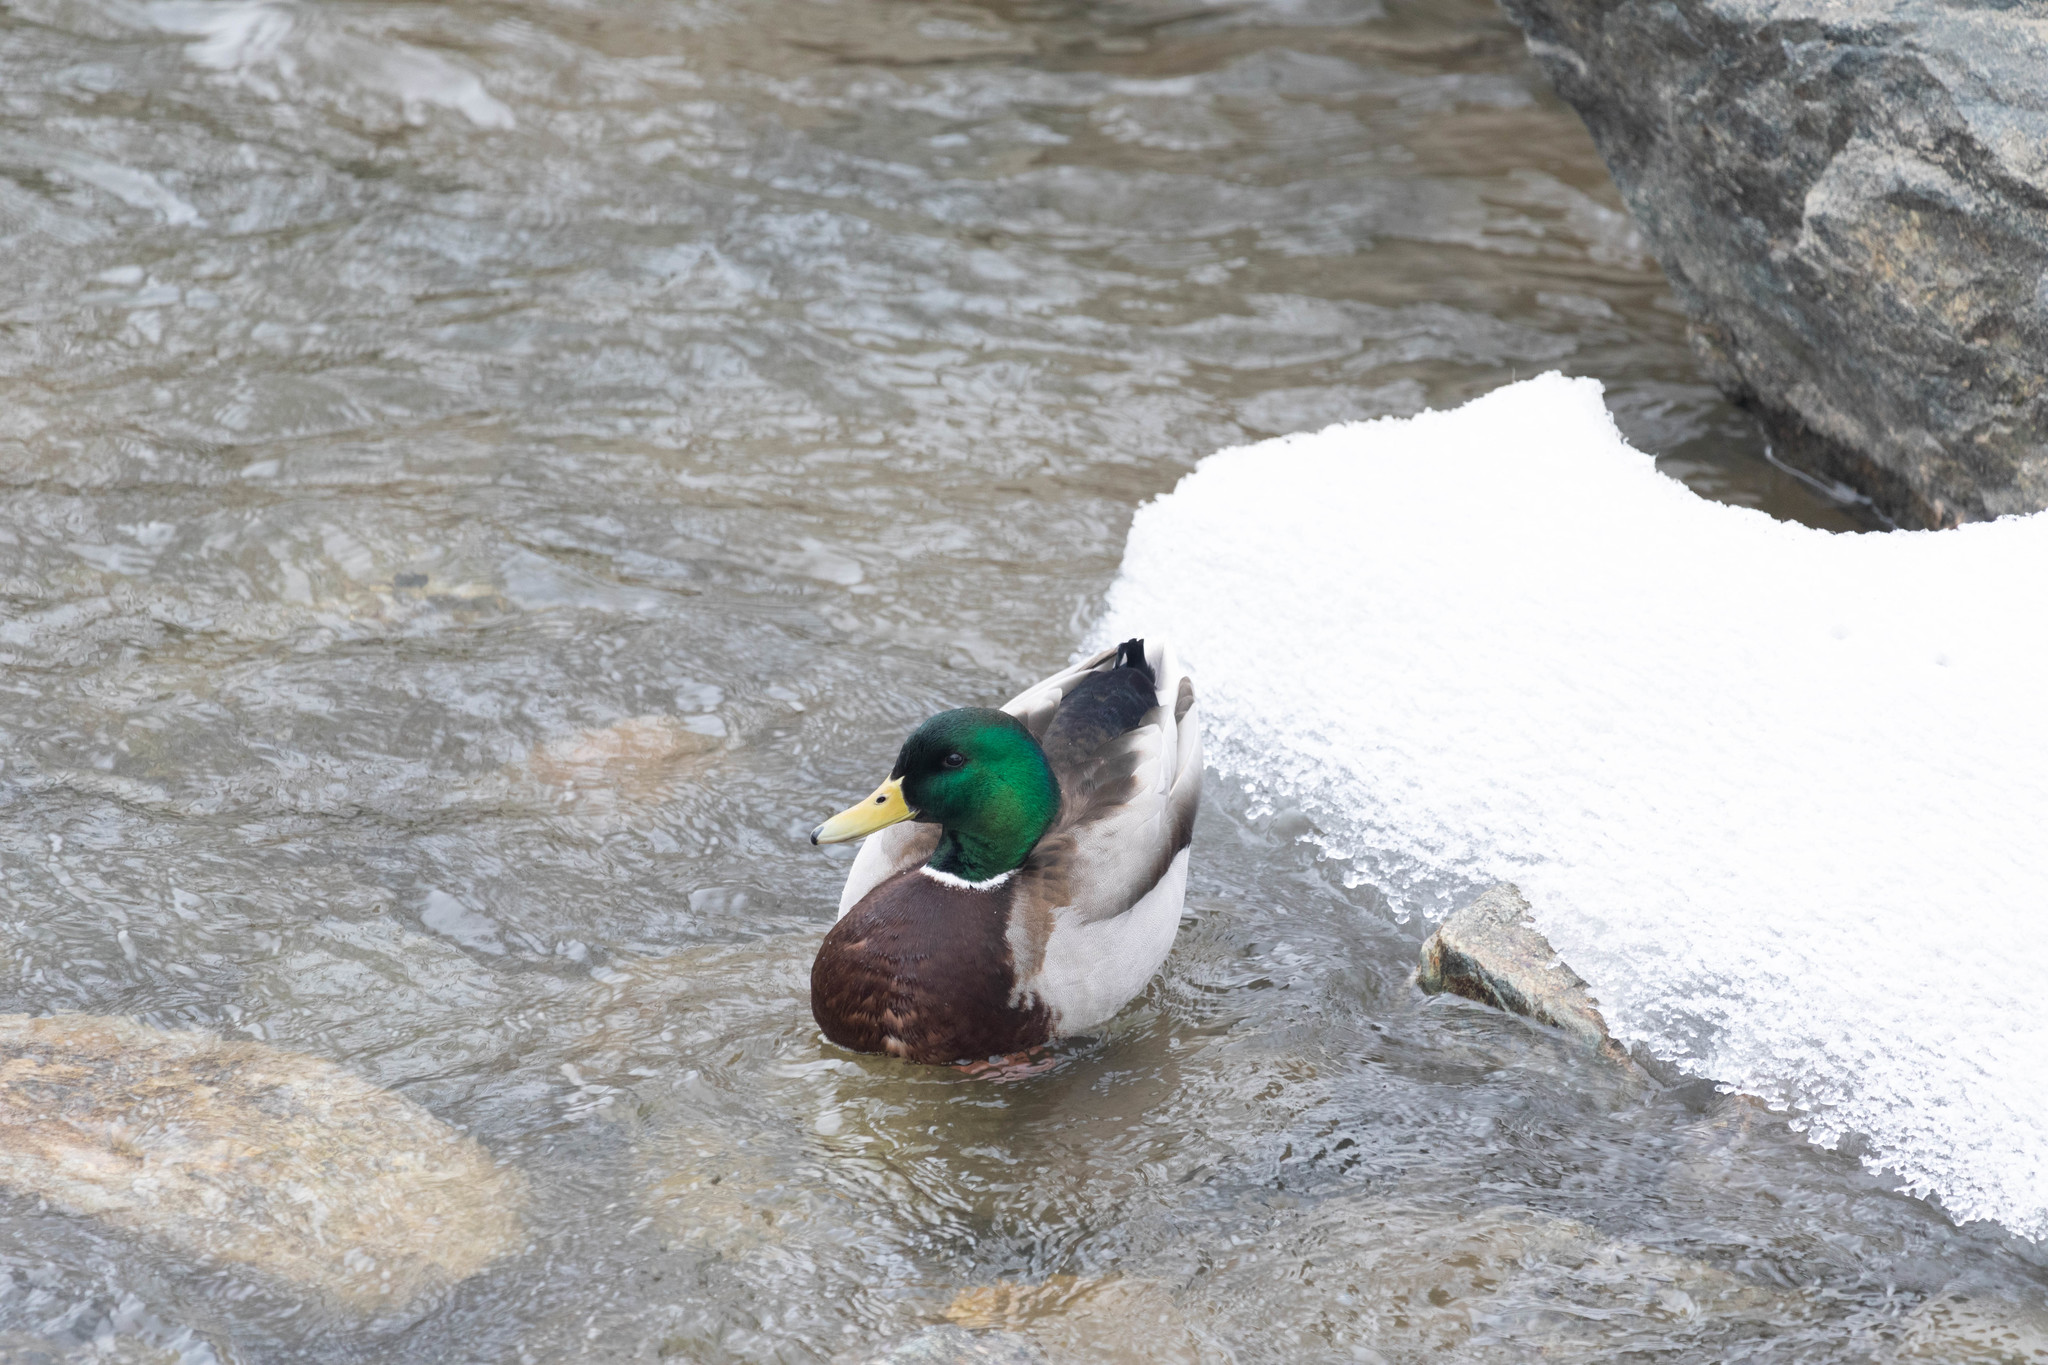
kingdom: Animalia
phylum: Chordata
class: Aves
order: Anseriformes
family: Anatidae
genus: Anas
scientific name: Anas platyrhynchos
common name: Mallard
